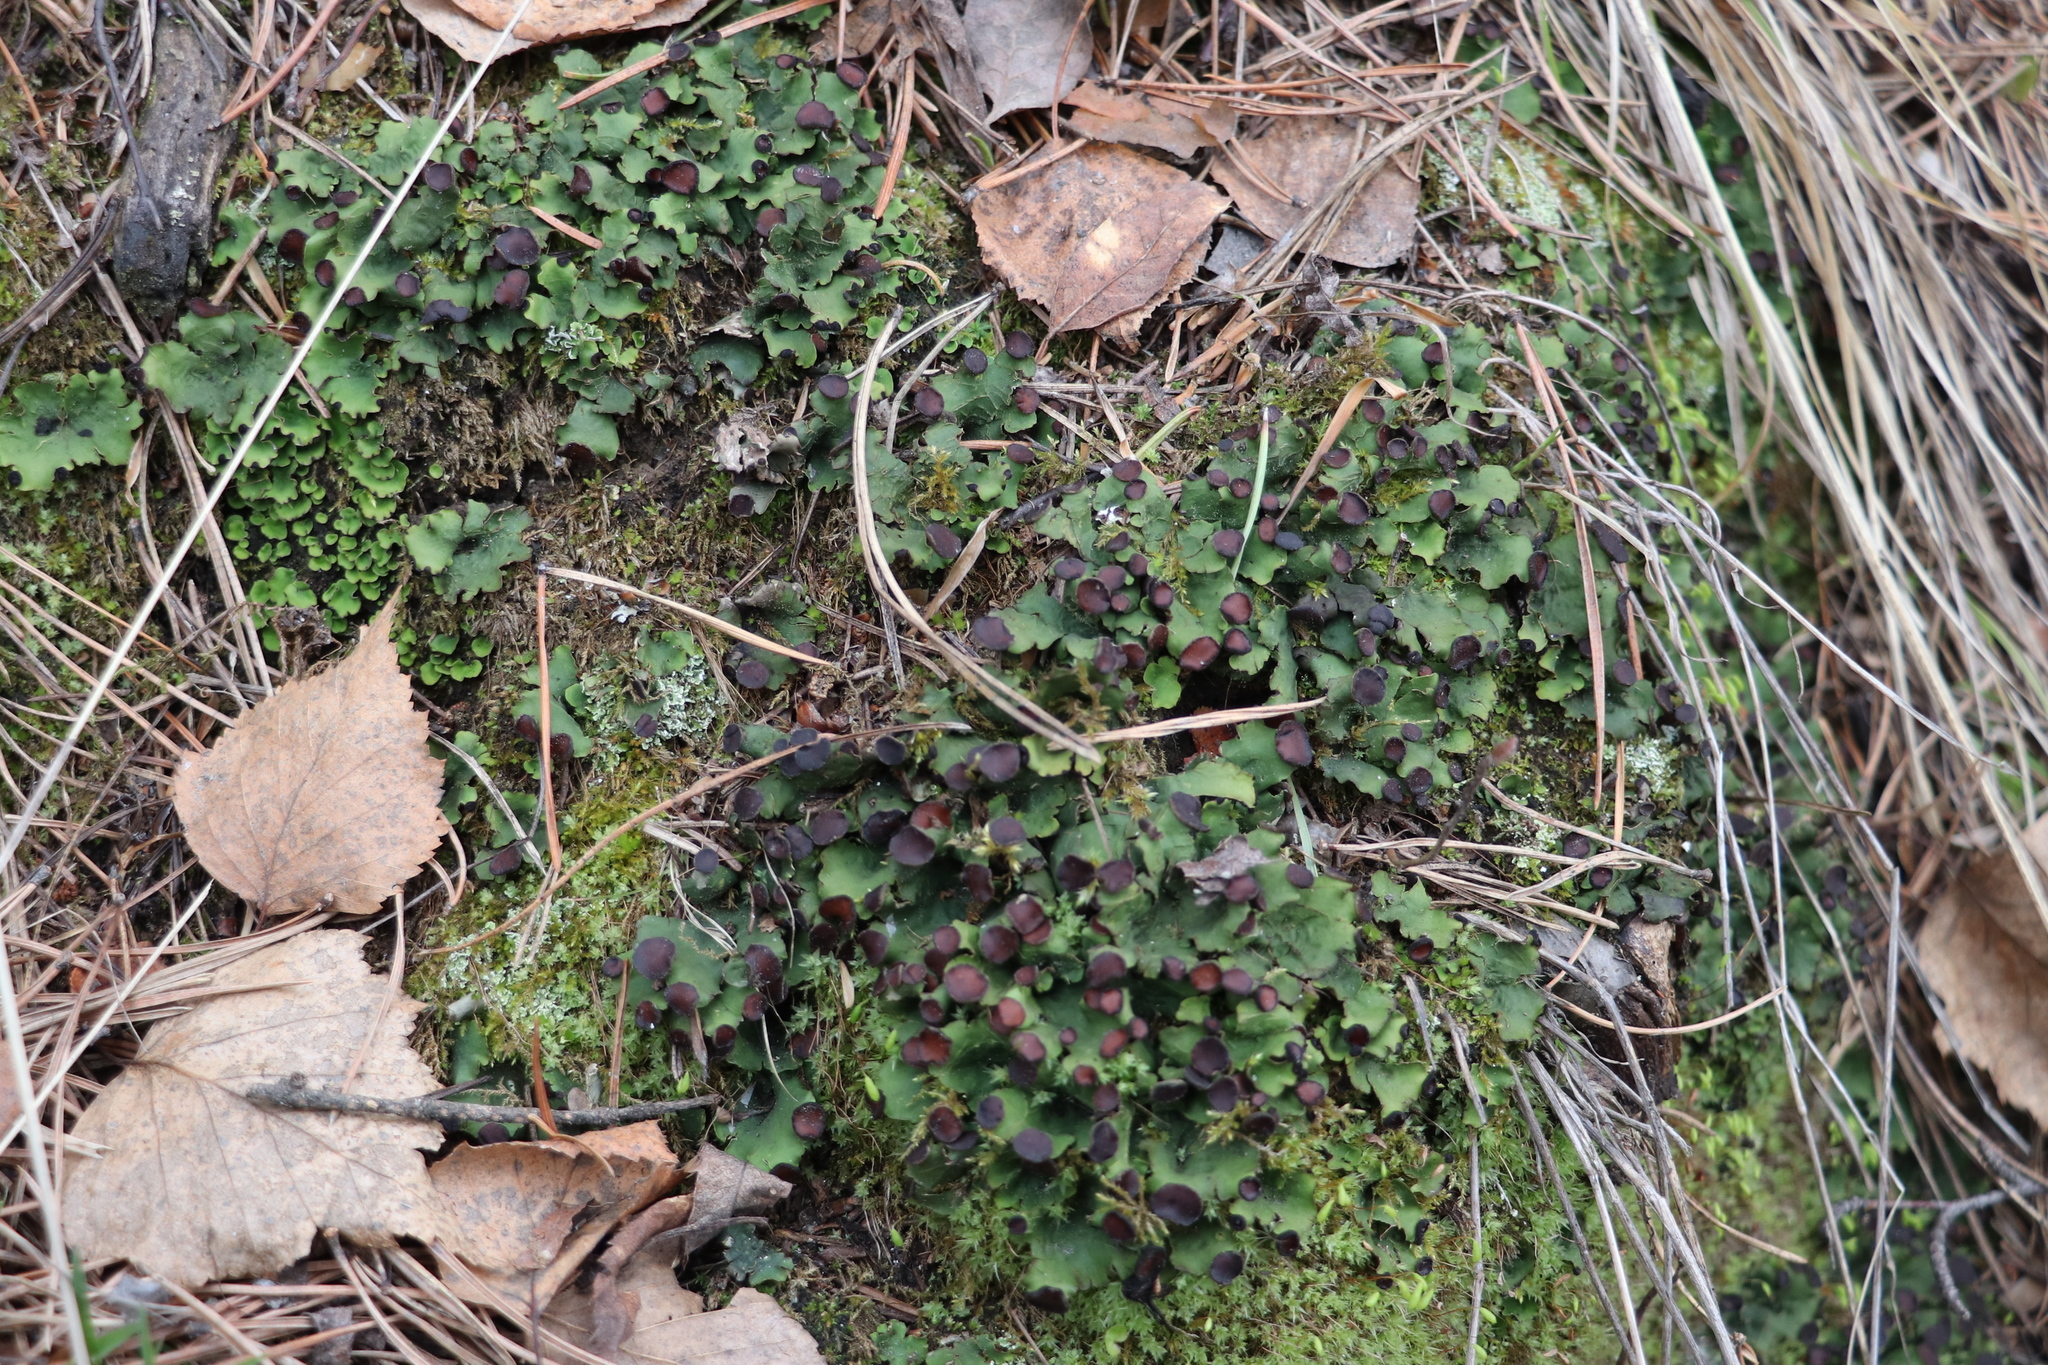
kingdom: Fungi
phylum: Ascomycota
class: Lecanoromycetes
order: Peltigerales
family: Peltigeraceae
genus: Peltigera
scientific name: Peltigera venosa
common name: Pixie gowns lichen
